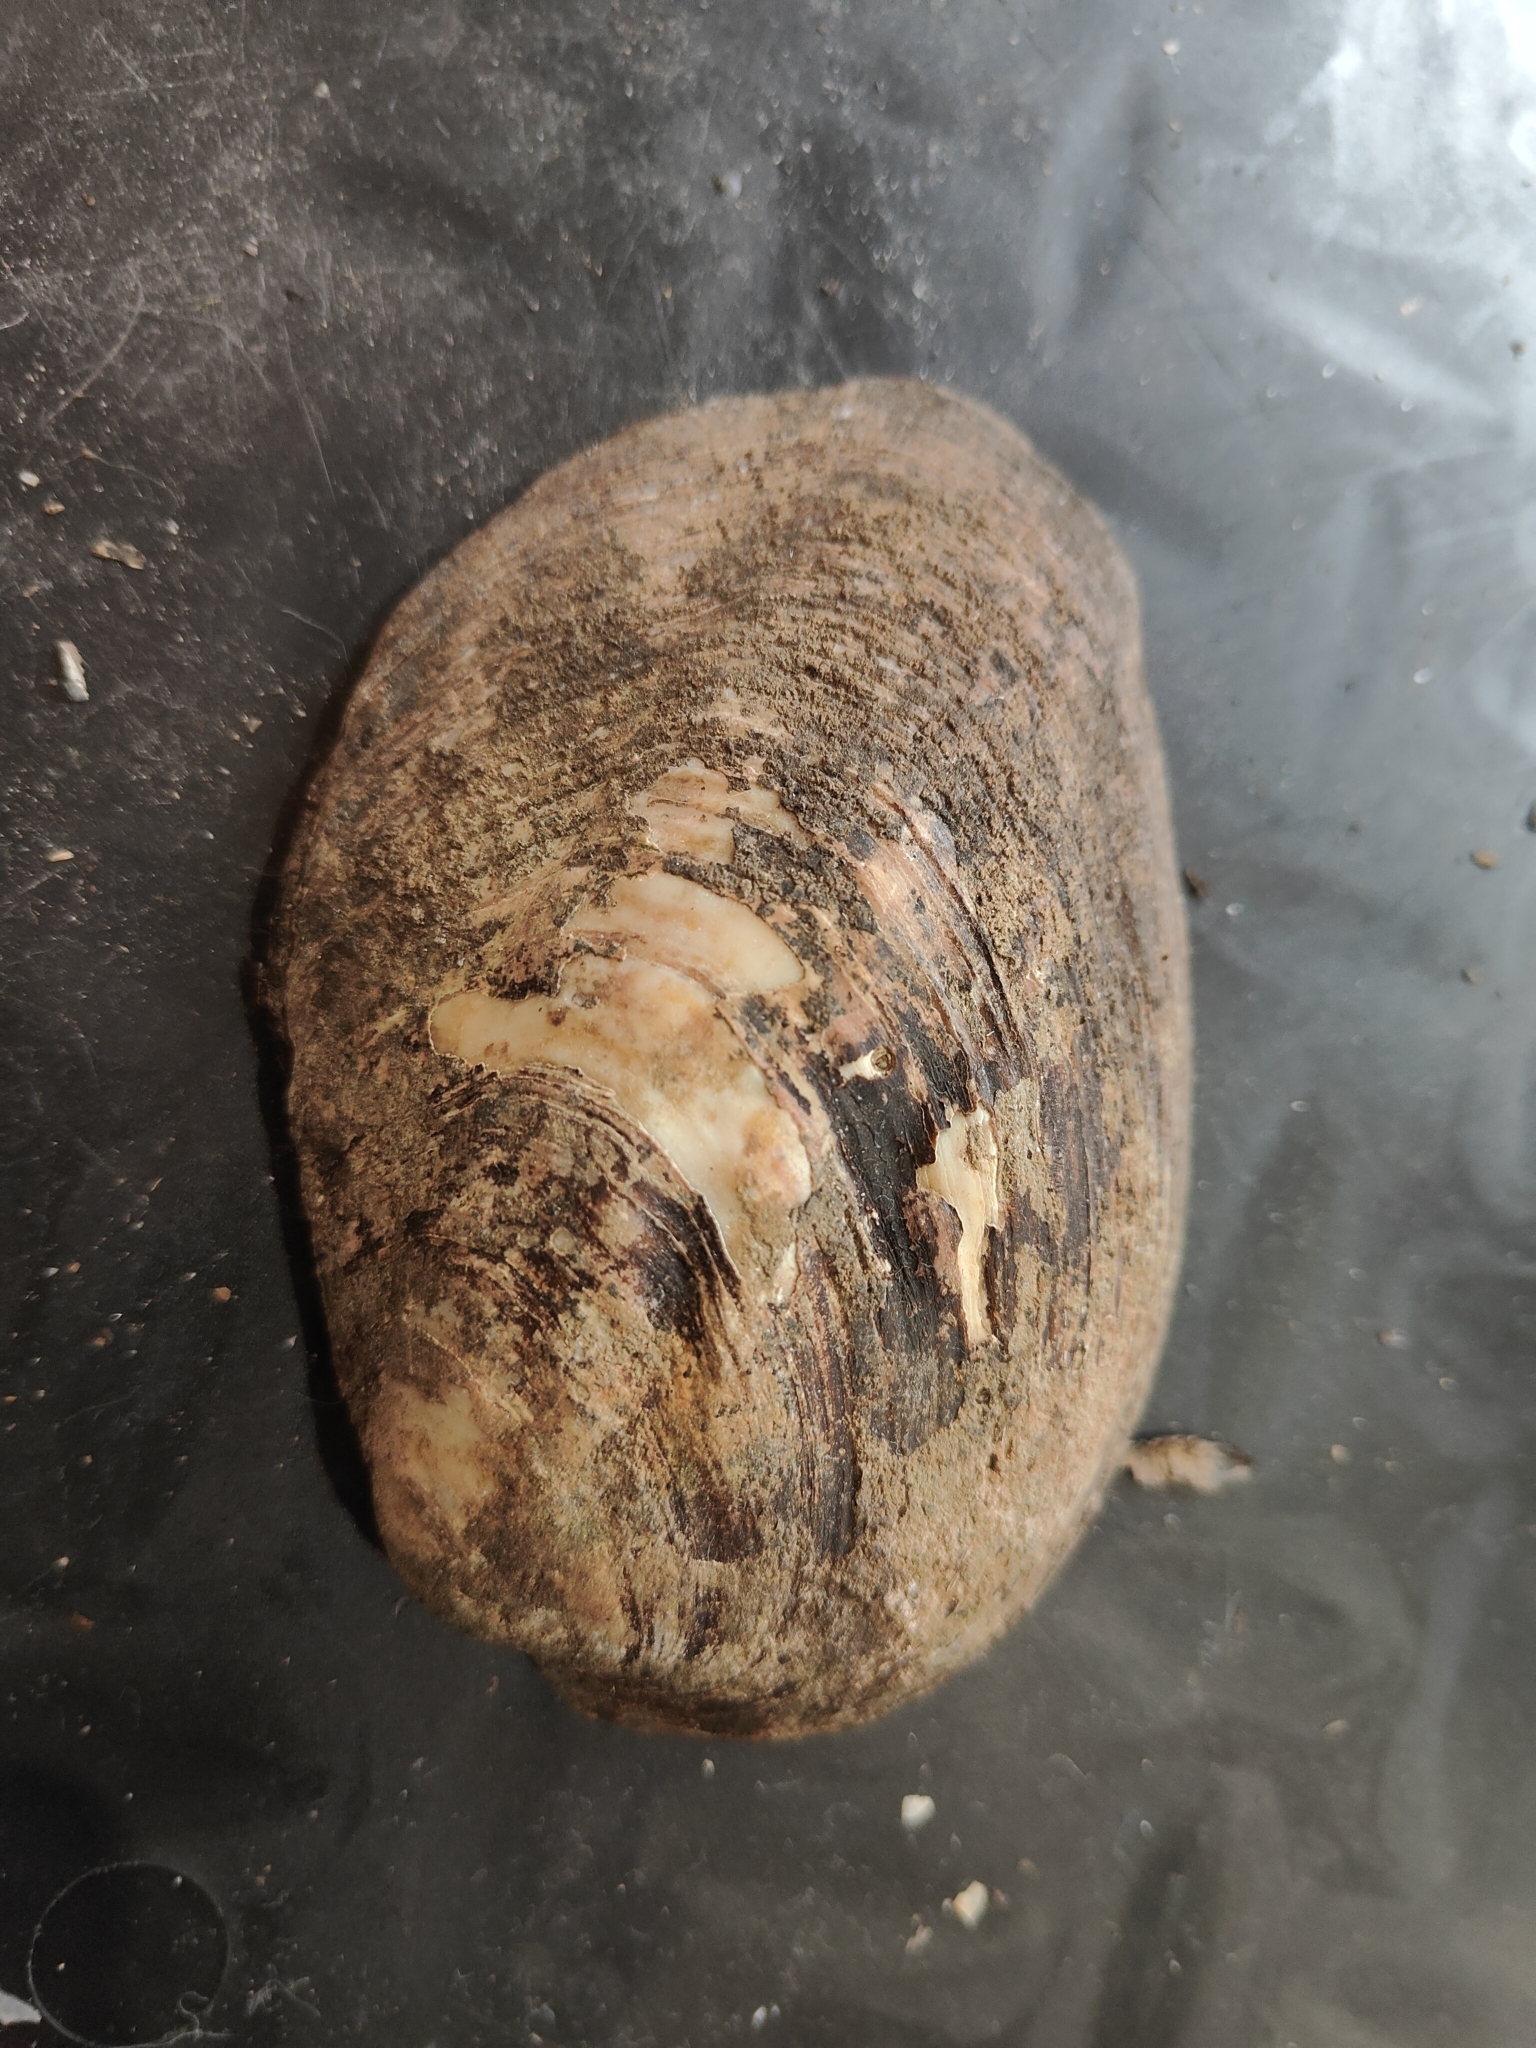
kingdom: Animalia
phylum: Mollusca
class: Bivalvia
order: Unionida
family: Unionidae
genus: Amblema
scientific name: Amblema plicata
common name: Threeridge
